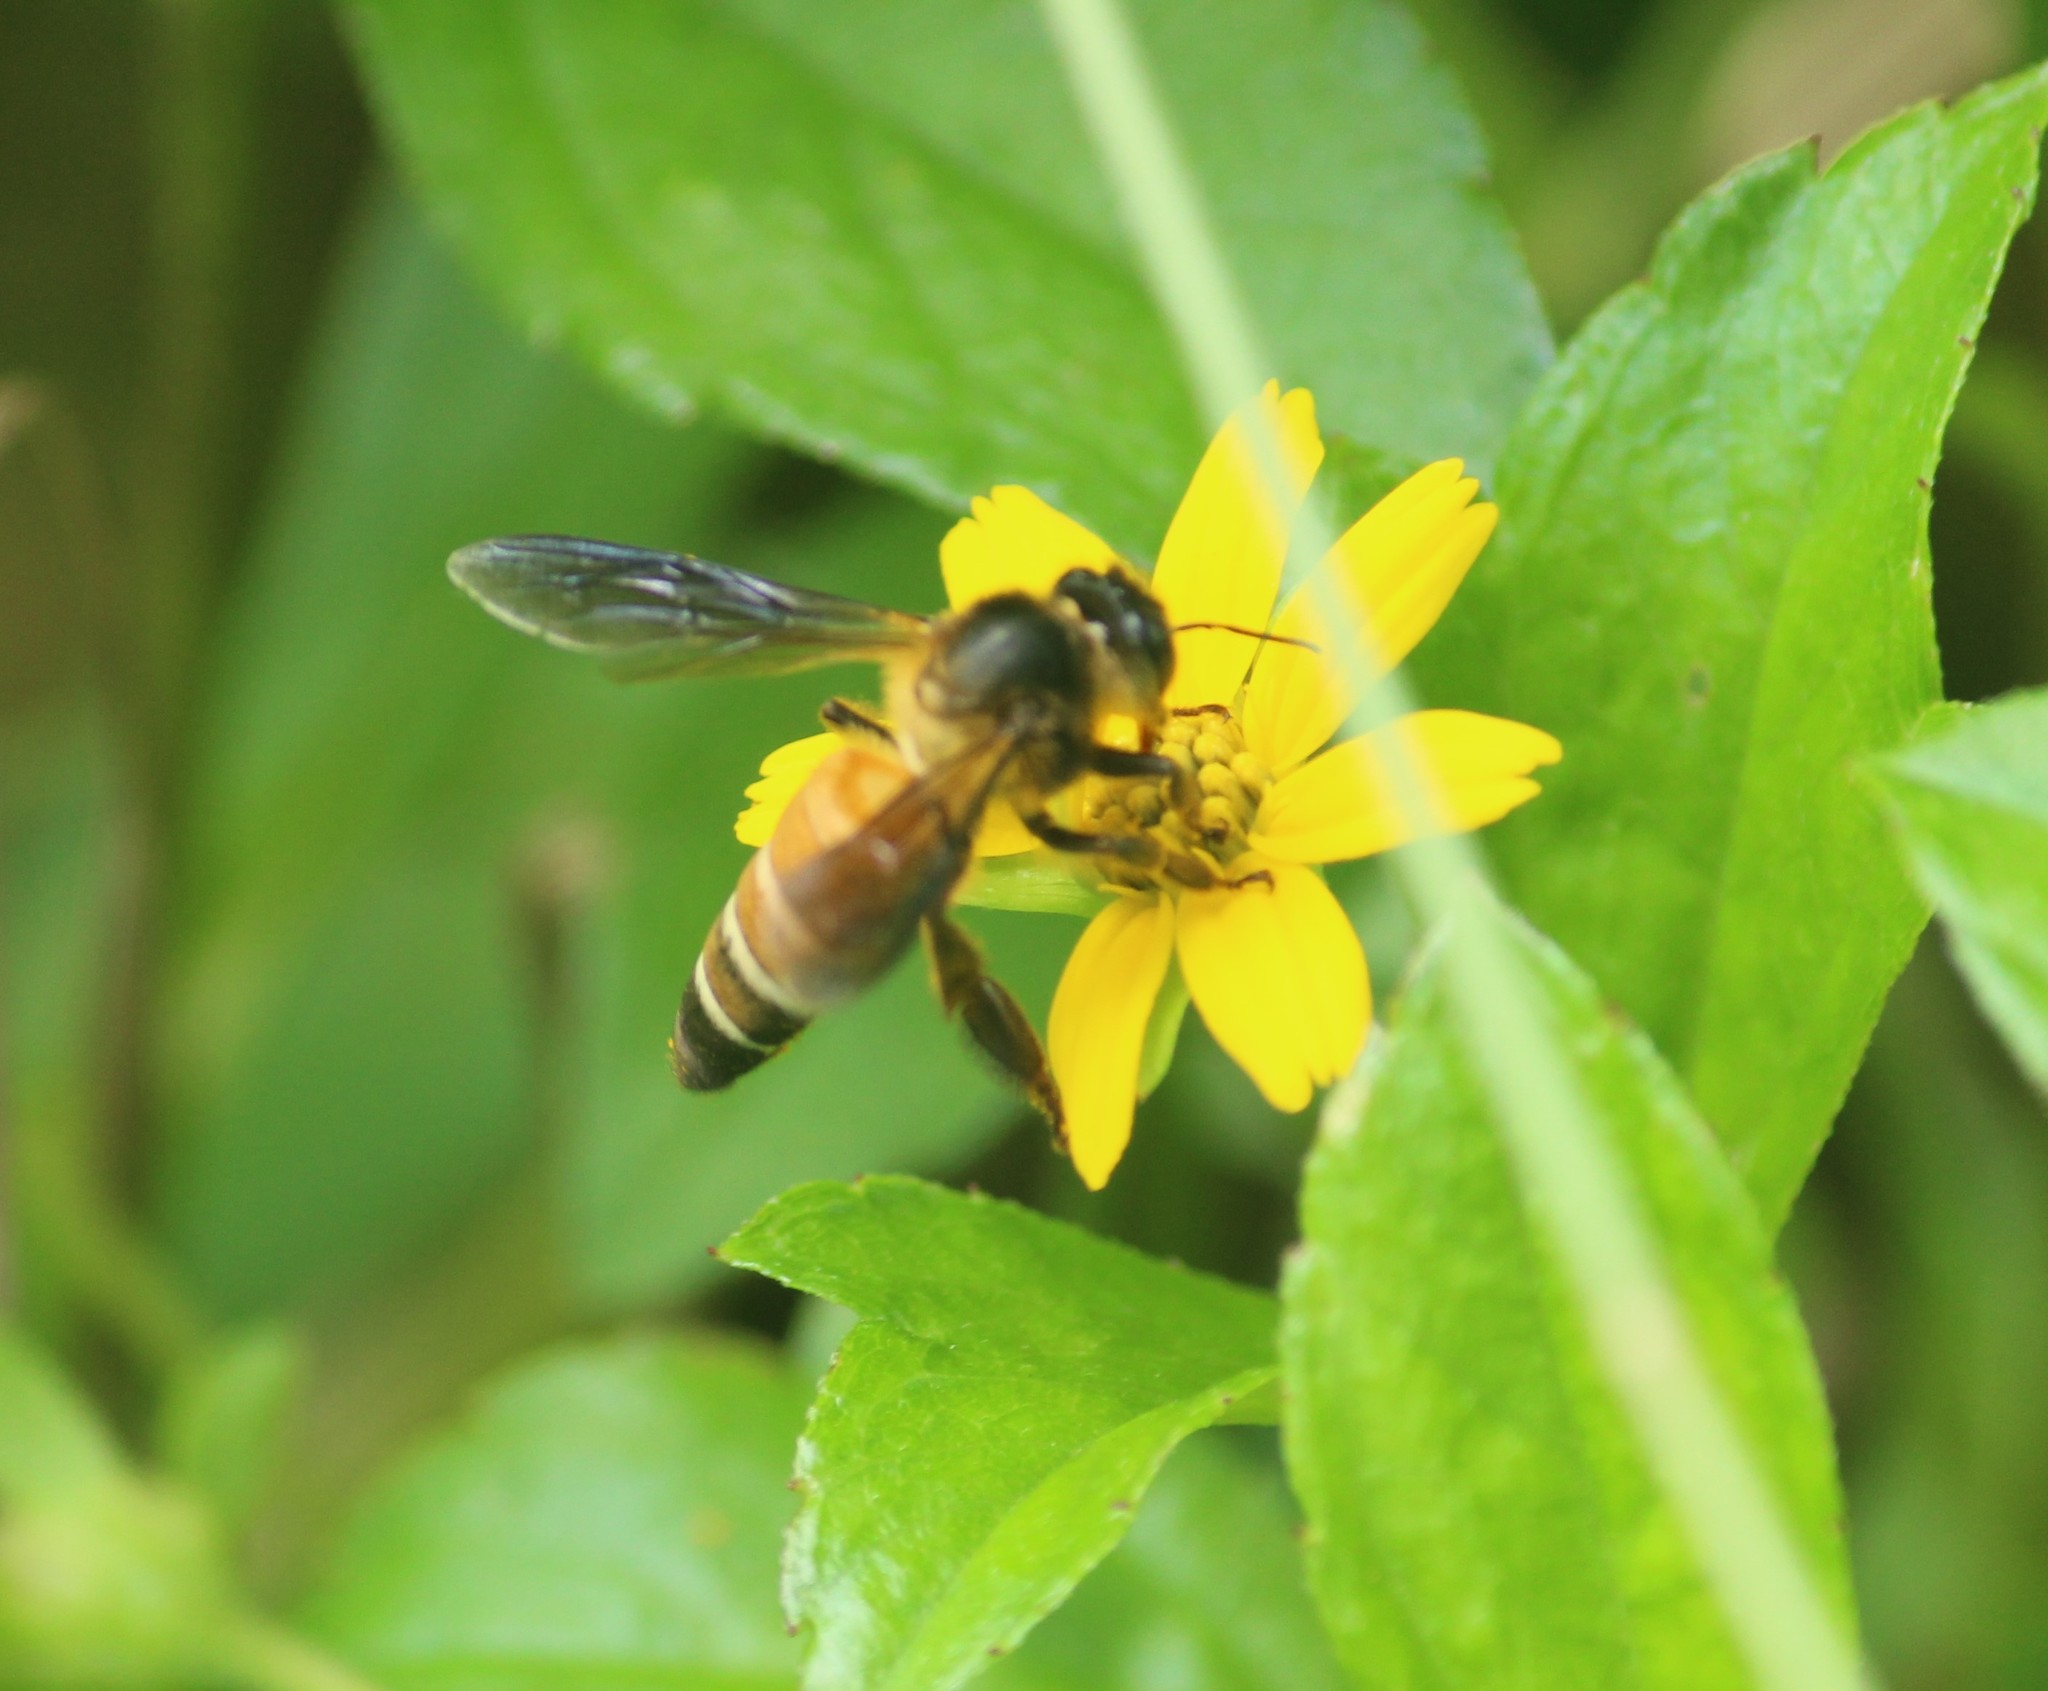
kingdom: Animalia
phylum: Arthropoda
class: Insecta
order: Hymenoptera
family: Apidae
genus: Apis
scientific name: Apis dorsata
